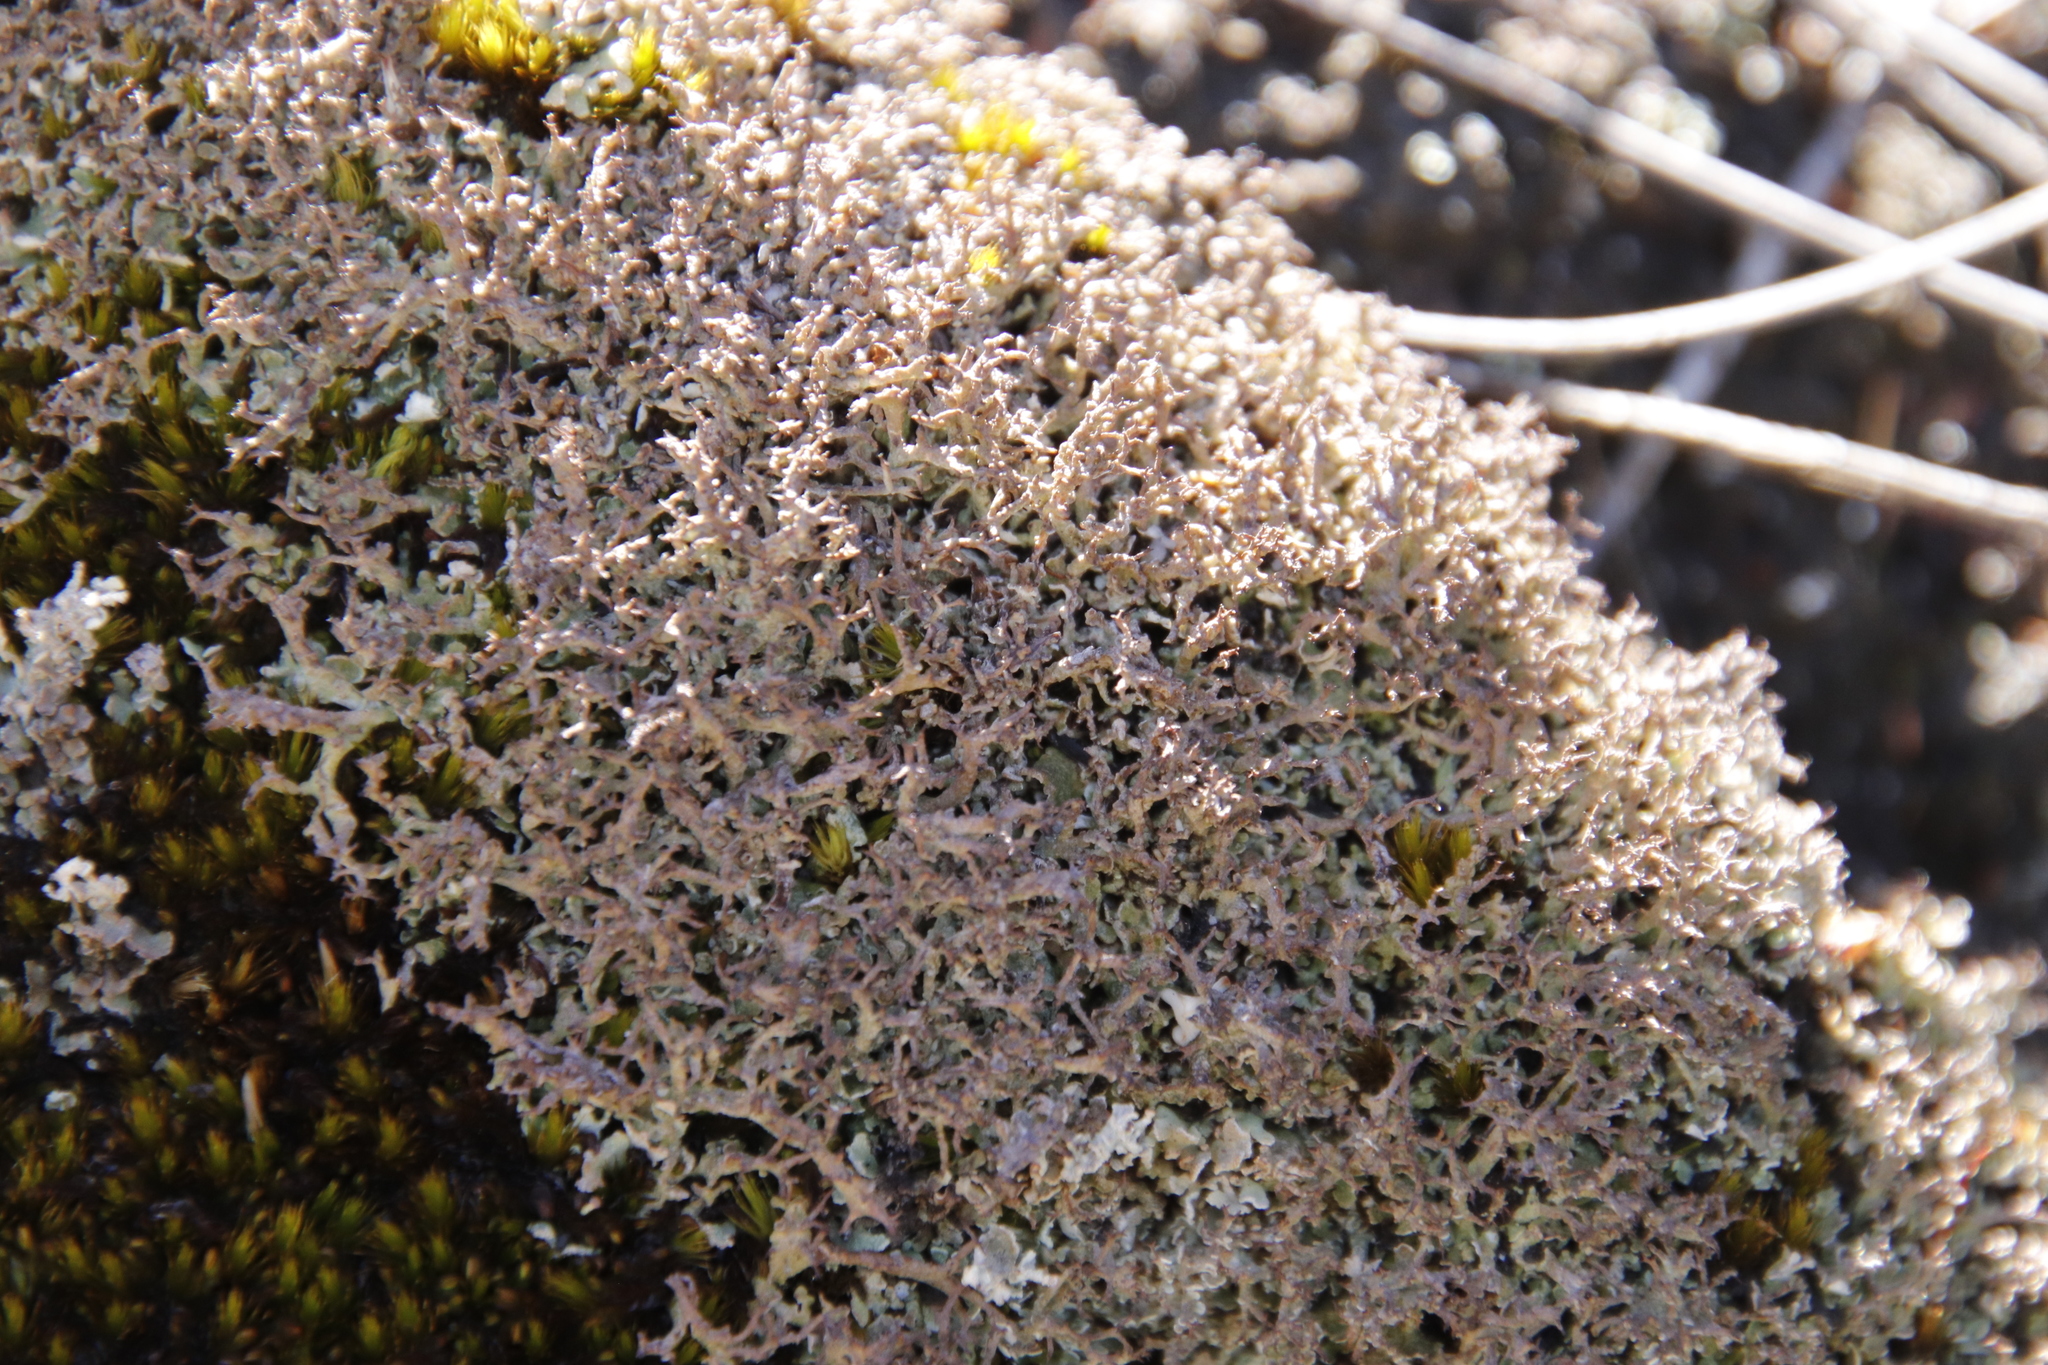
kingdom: Fungi
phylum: Ascomycota
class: Lecanoromycetes
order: Lecanorales
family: Cladoniaceae
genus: Cladonia
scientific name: Cladonia
